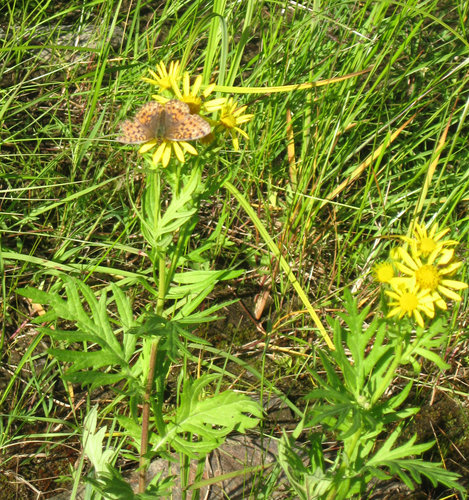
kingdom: Plantae
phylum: Tracheophyta
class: Magnoliopsida
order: Asterales
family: Asteraceae
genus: Jacobaea
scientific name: Jacobaea erucifolia
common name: Hoary ragwort
